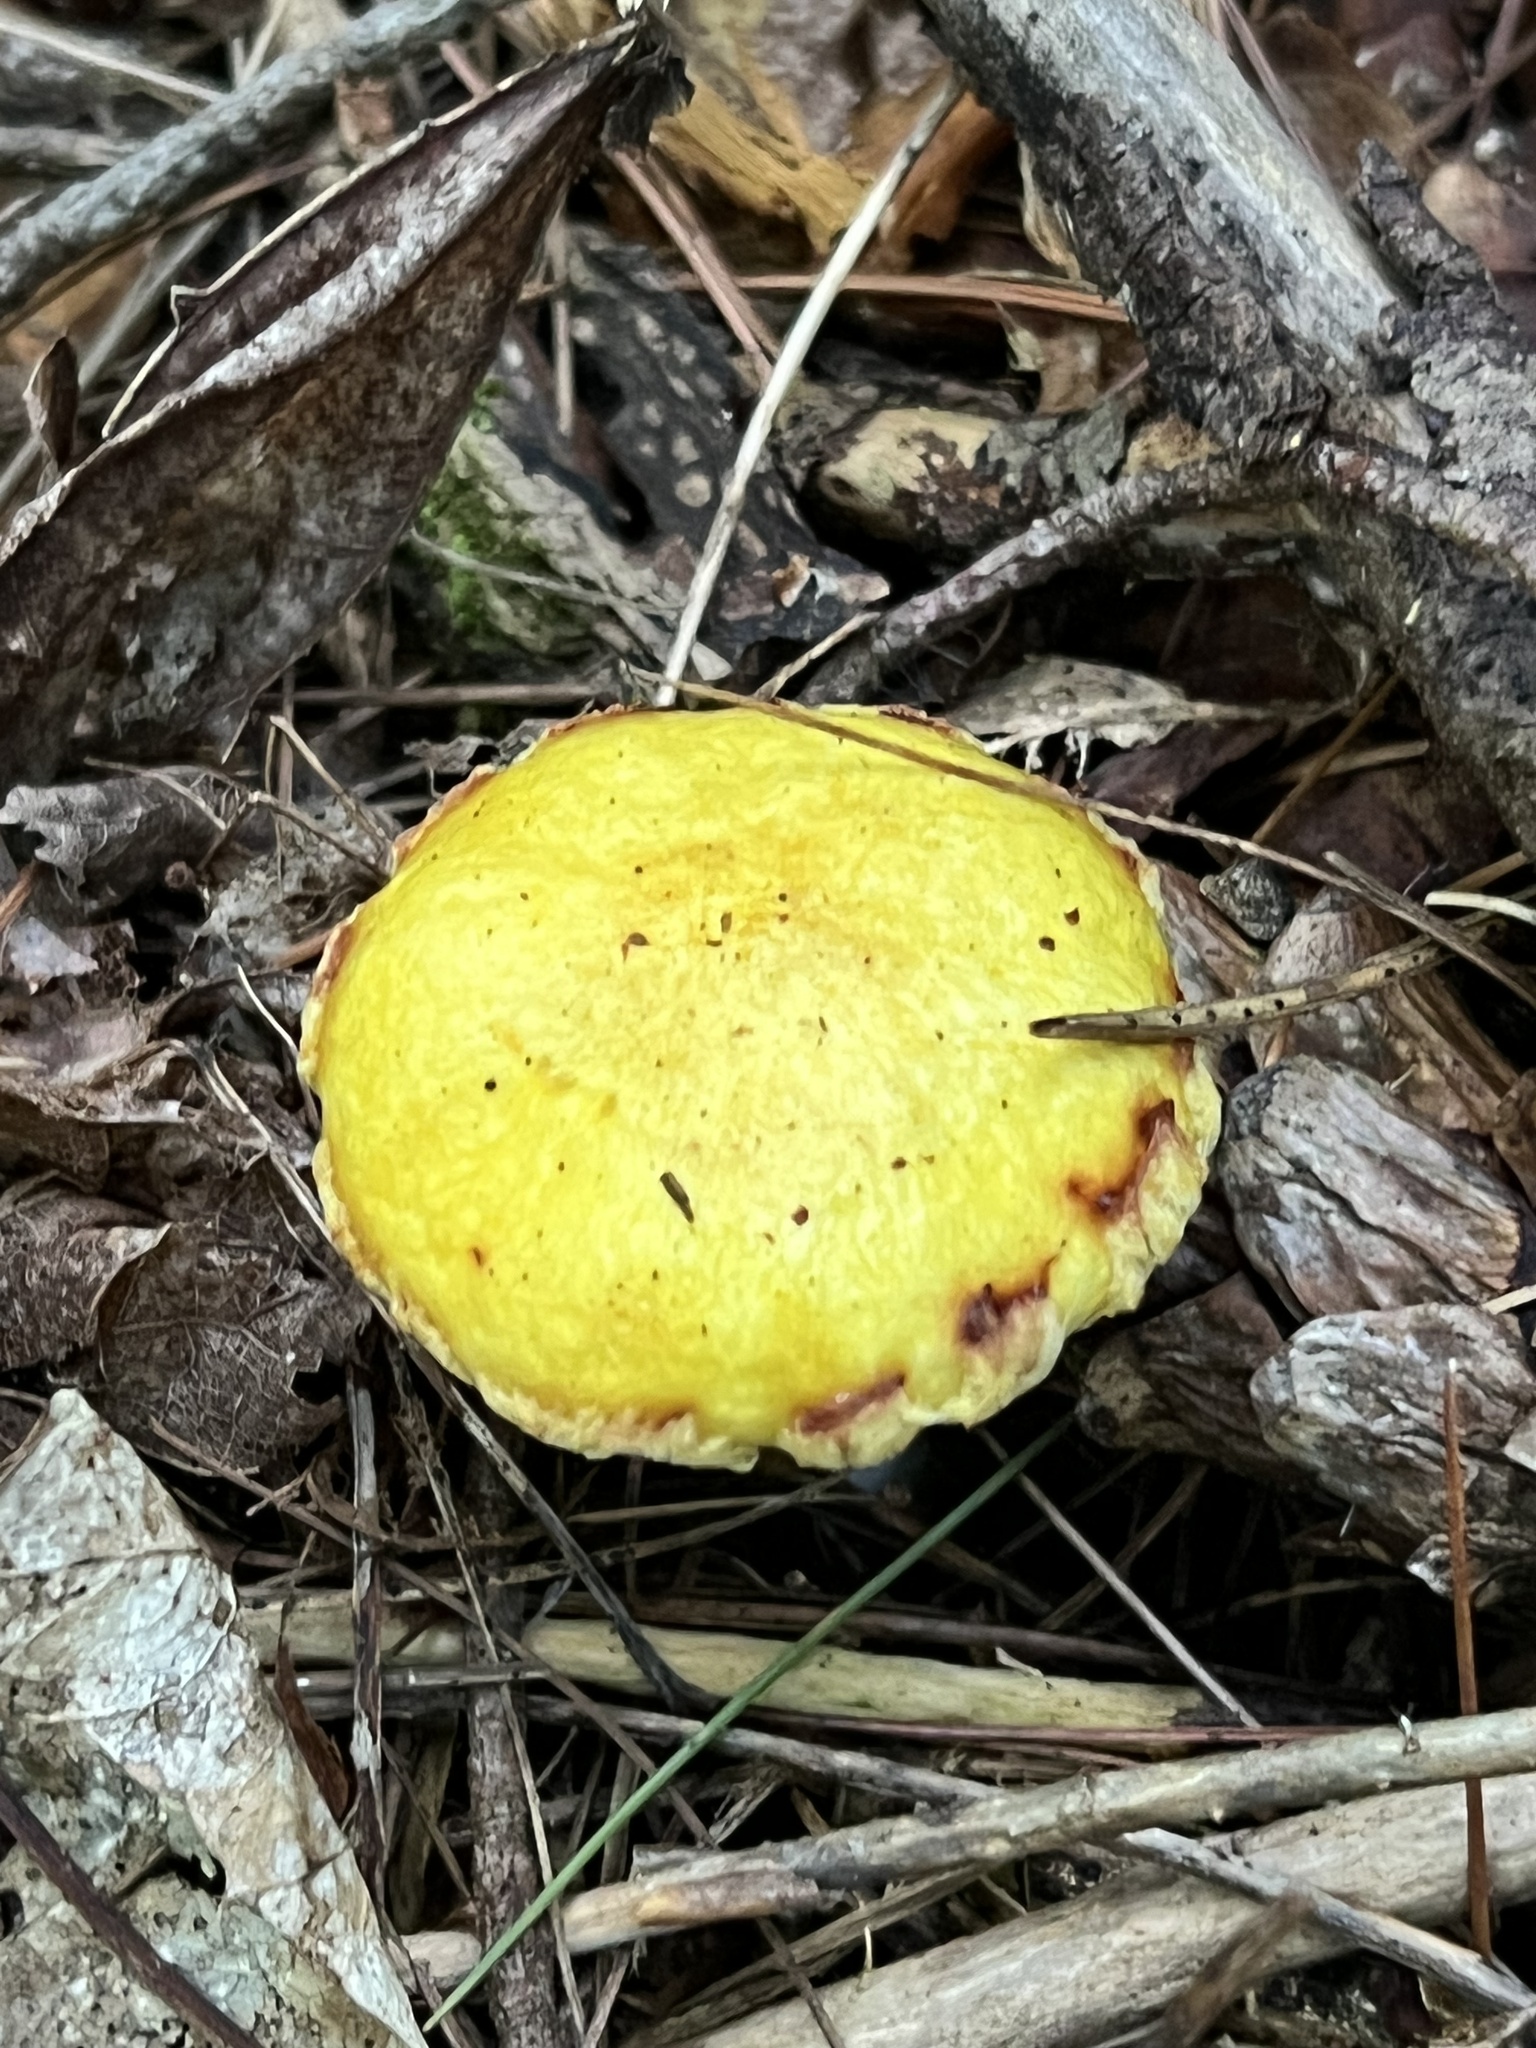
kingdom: Fungi
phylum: Basidiomycota
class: Agaricomycetes
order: Boletales
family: Suillaceae
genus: Suillus
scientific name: Suillus americanus
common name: Chicken fat mushroom
